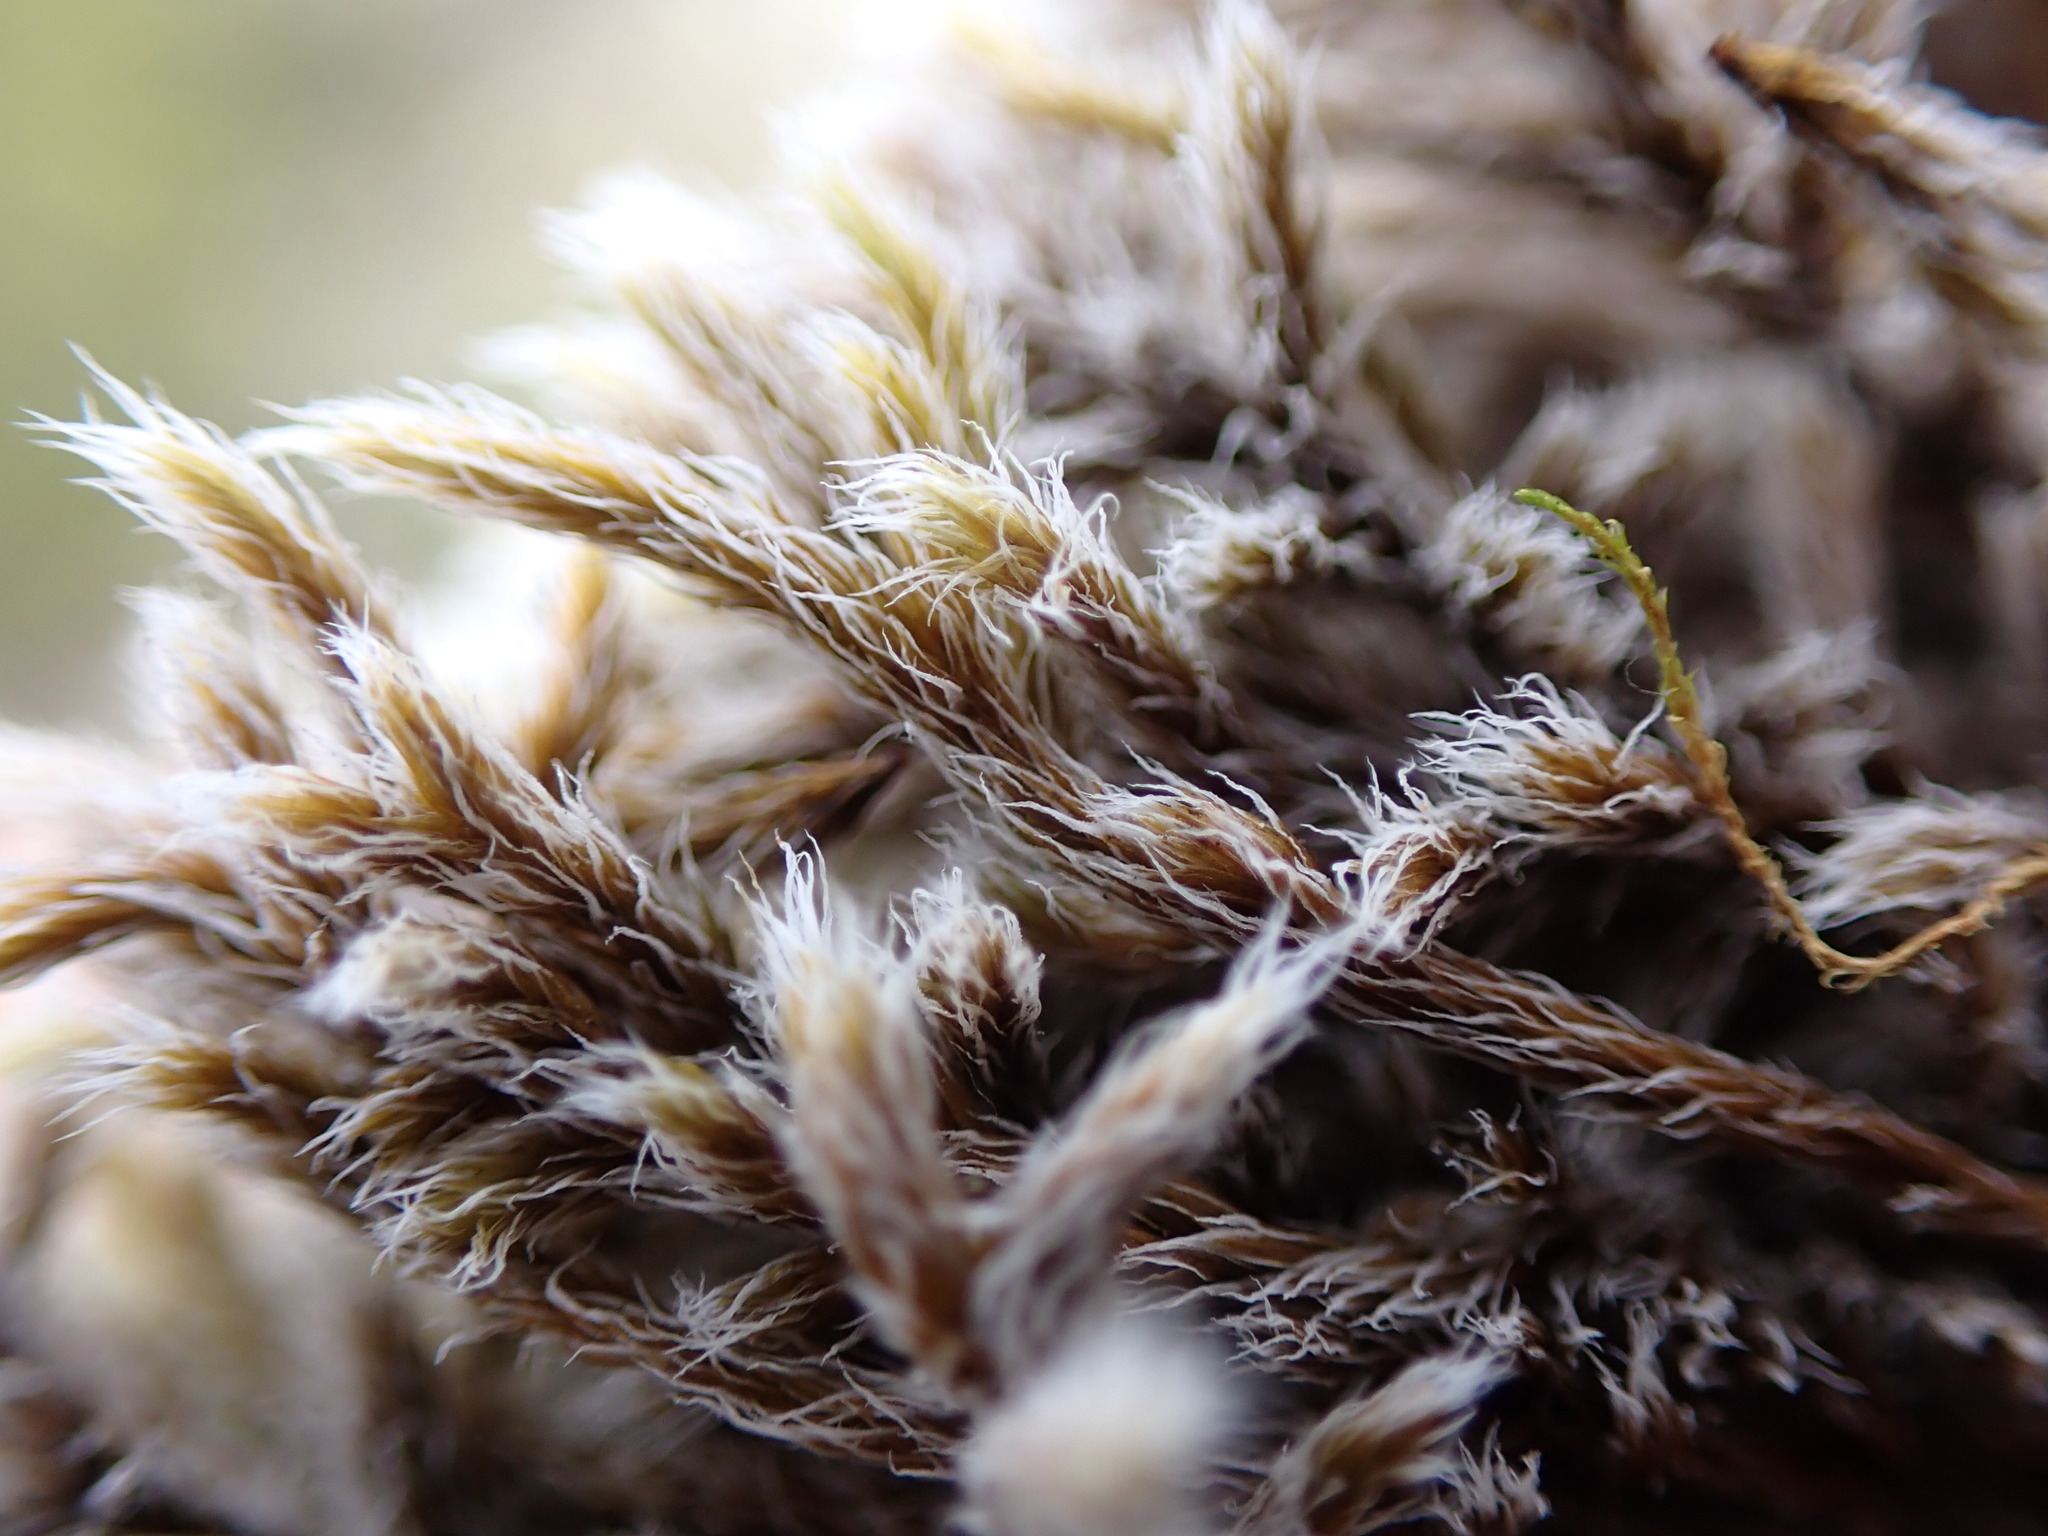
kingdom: Plantae
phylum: Bryophyta
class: Bryopsida
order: Grimmiales
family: Grimmiaceae
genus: Racomitrium
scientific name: Racomitrium lanuginosum
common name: Hoary rock moss
